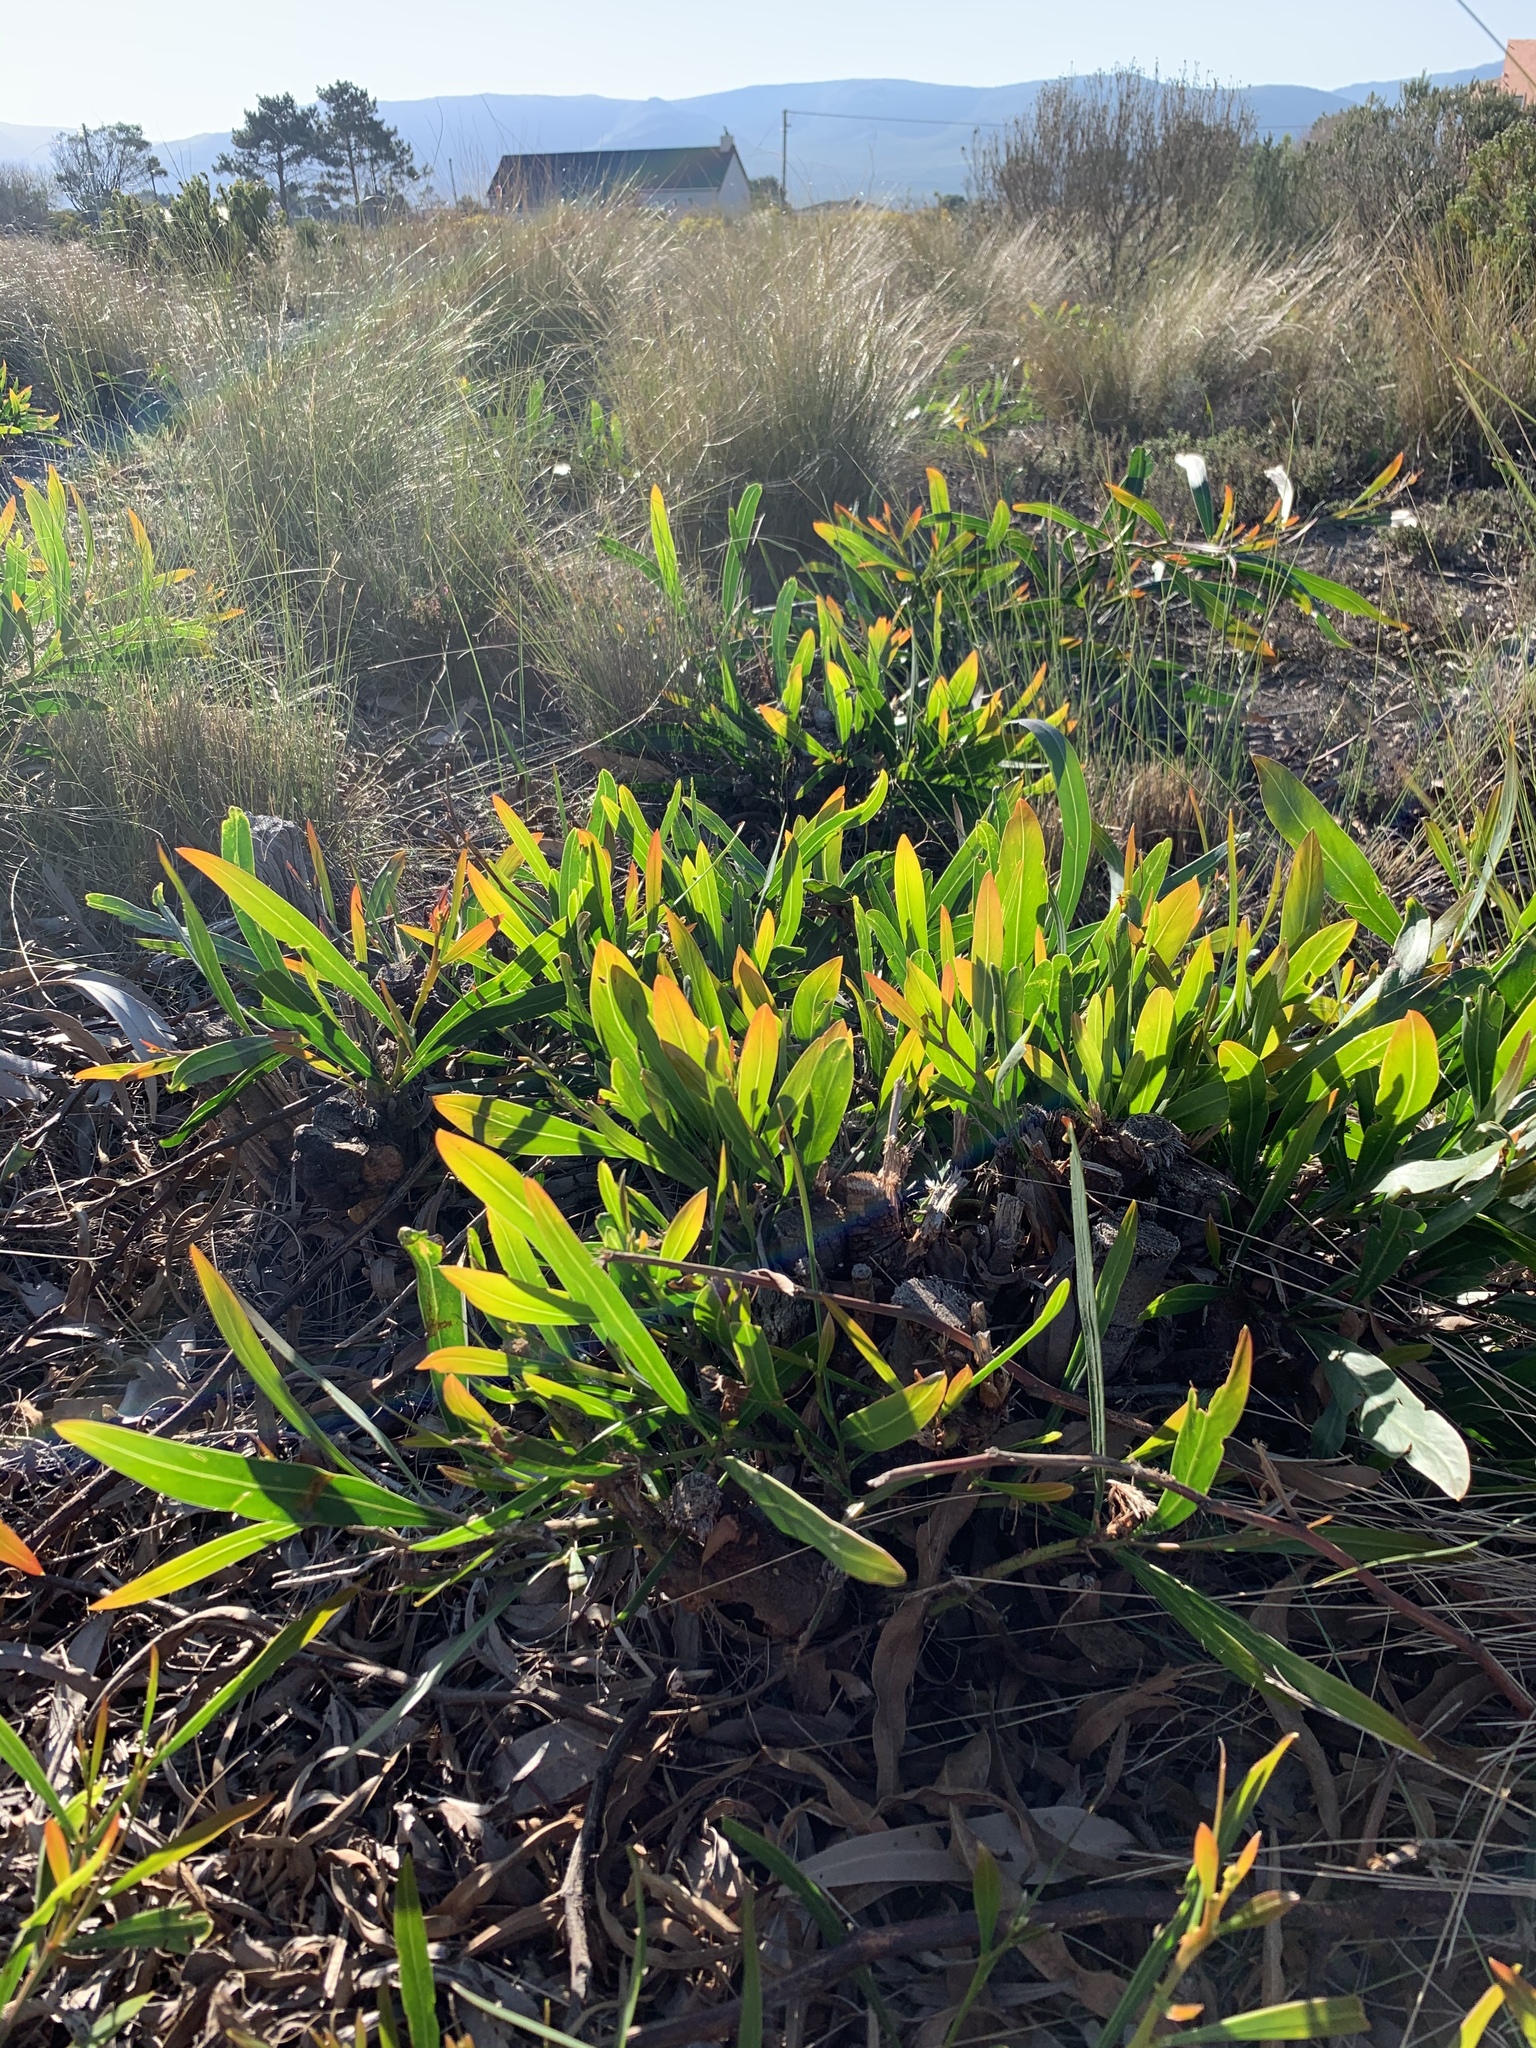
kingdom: Plantae
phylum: Tracheophyta
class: Magnoliopsida
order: Fabales
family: Fabaceae
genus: Acacia
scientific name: Acacia saligna
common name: Orange wattle
